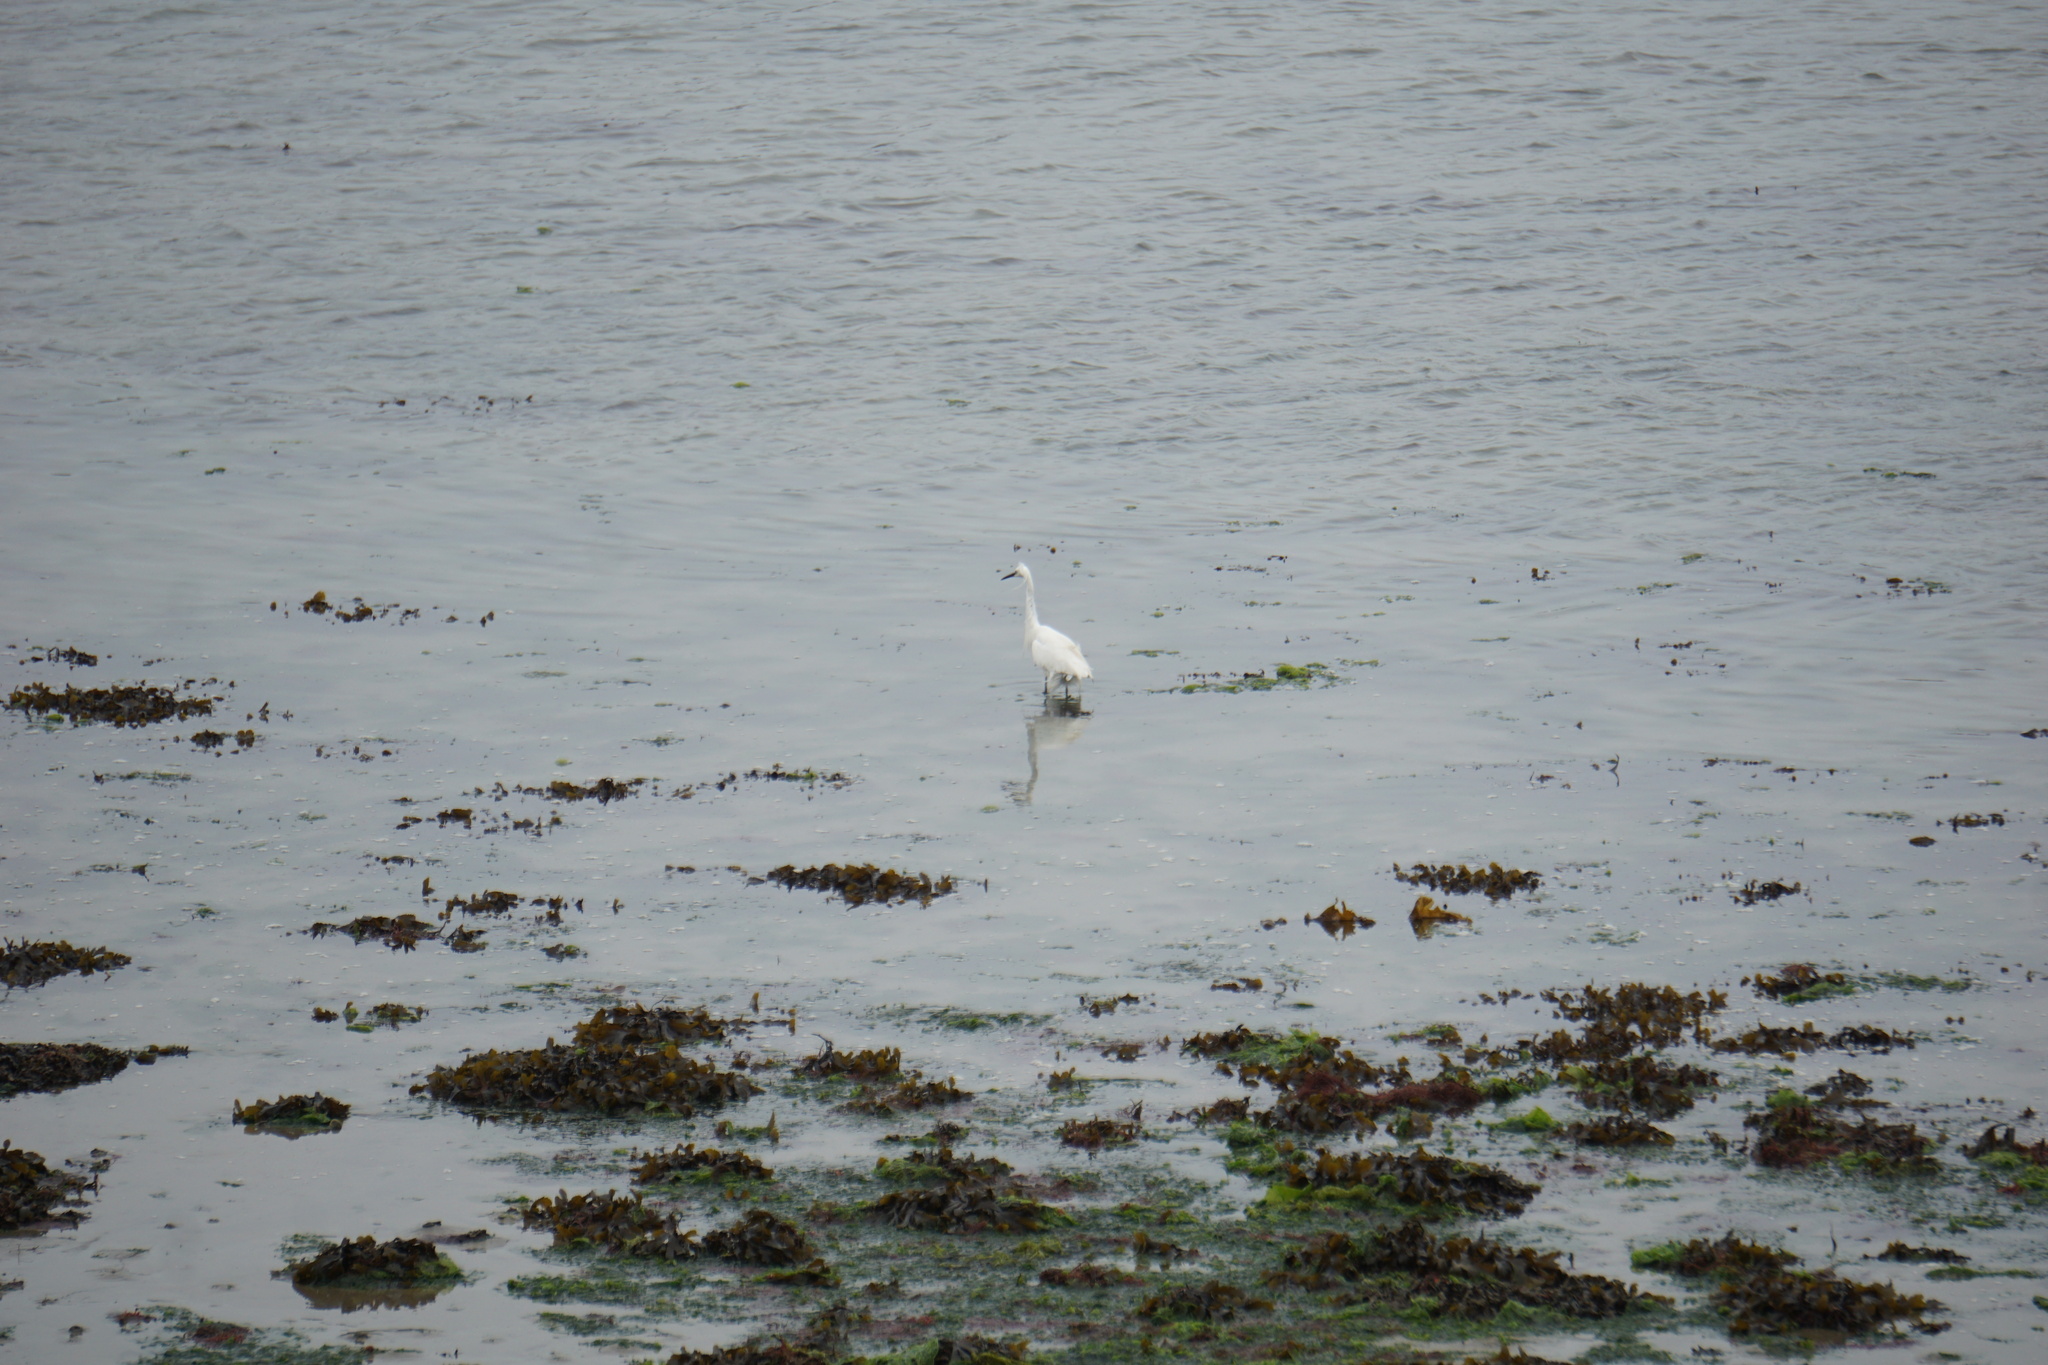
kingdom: Animalia
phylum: Chordata
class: Aves
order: Pelecaniformes
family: Ardeidae
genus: Egretta
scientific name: Egretta garzetta
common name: Little egret
